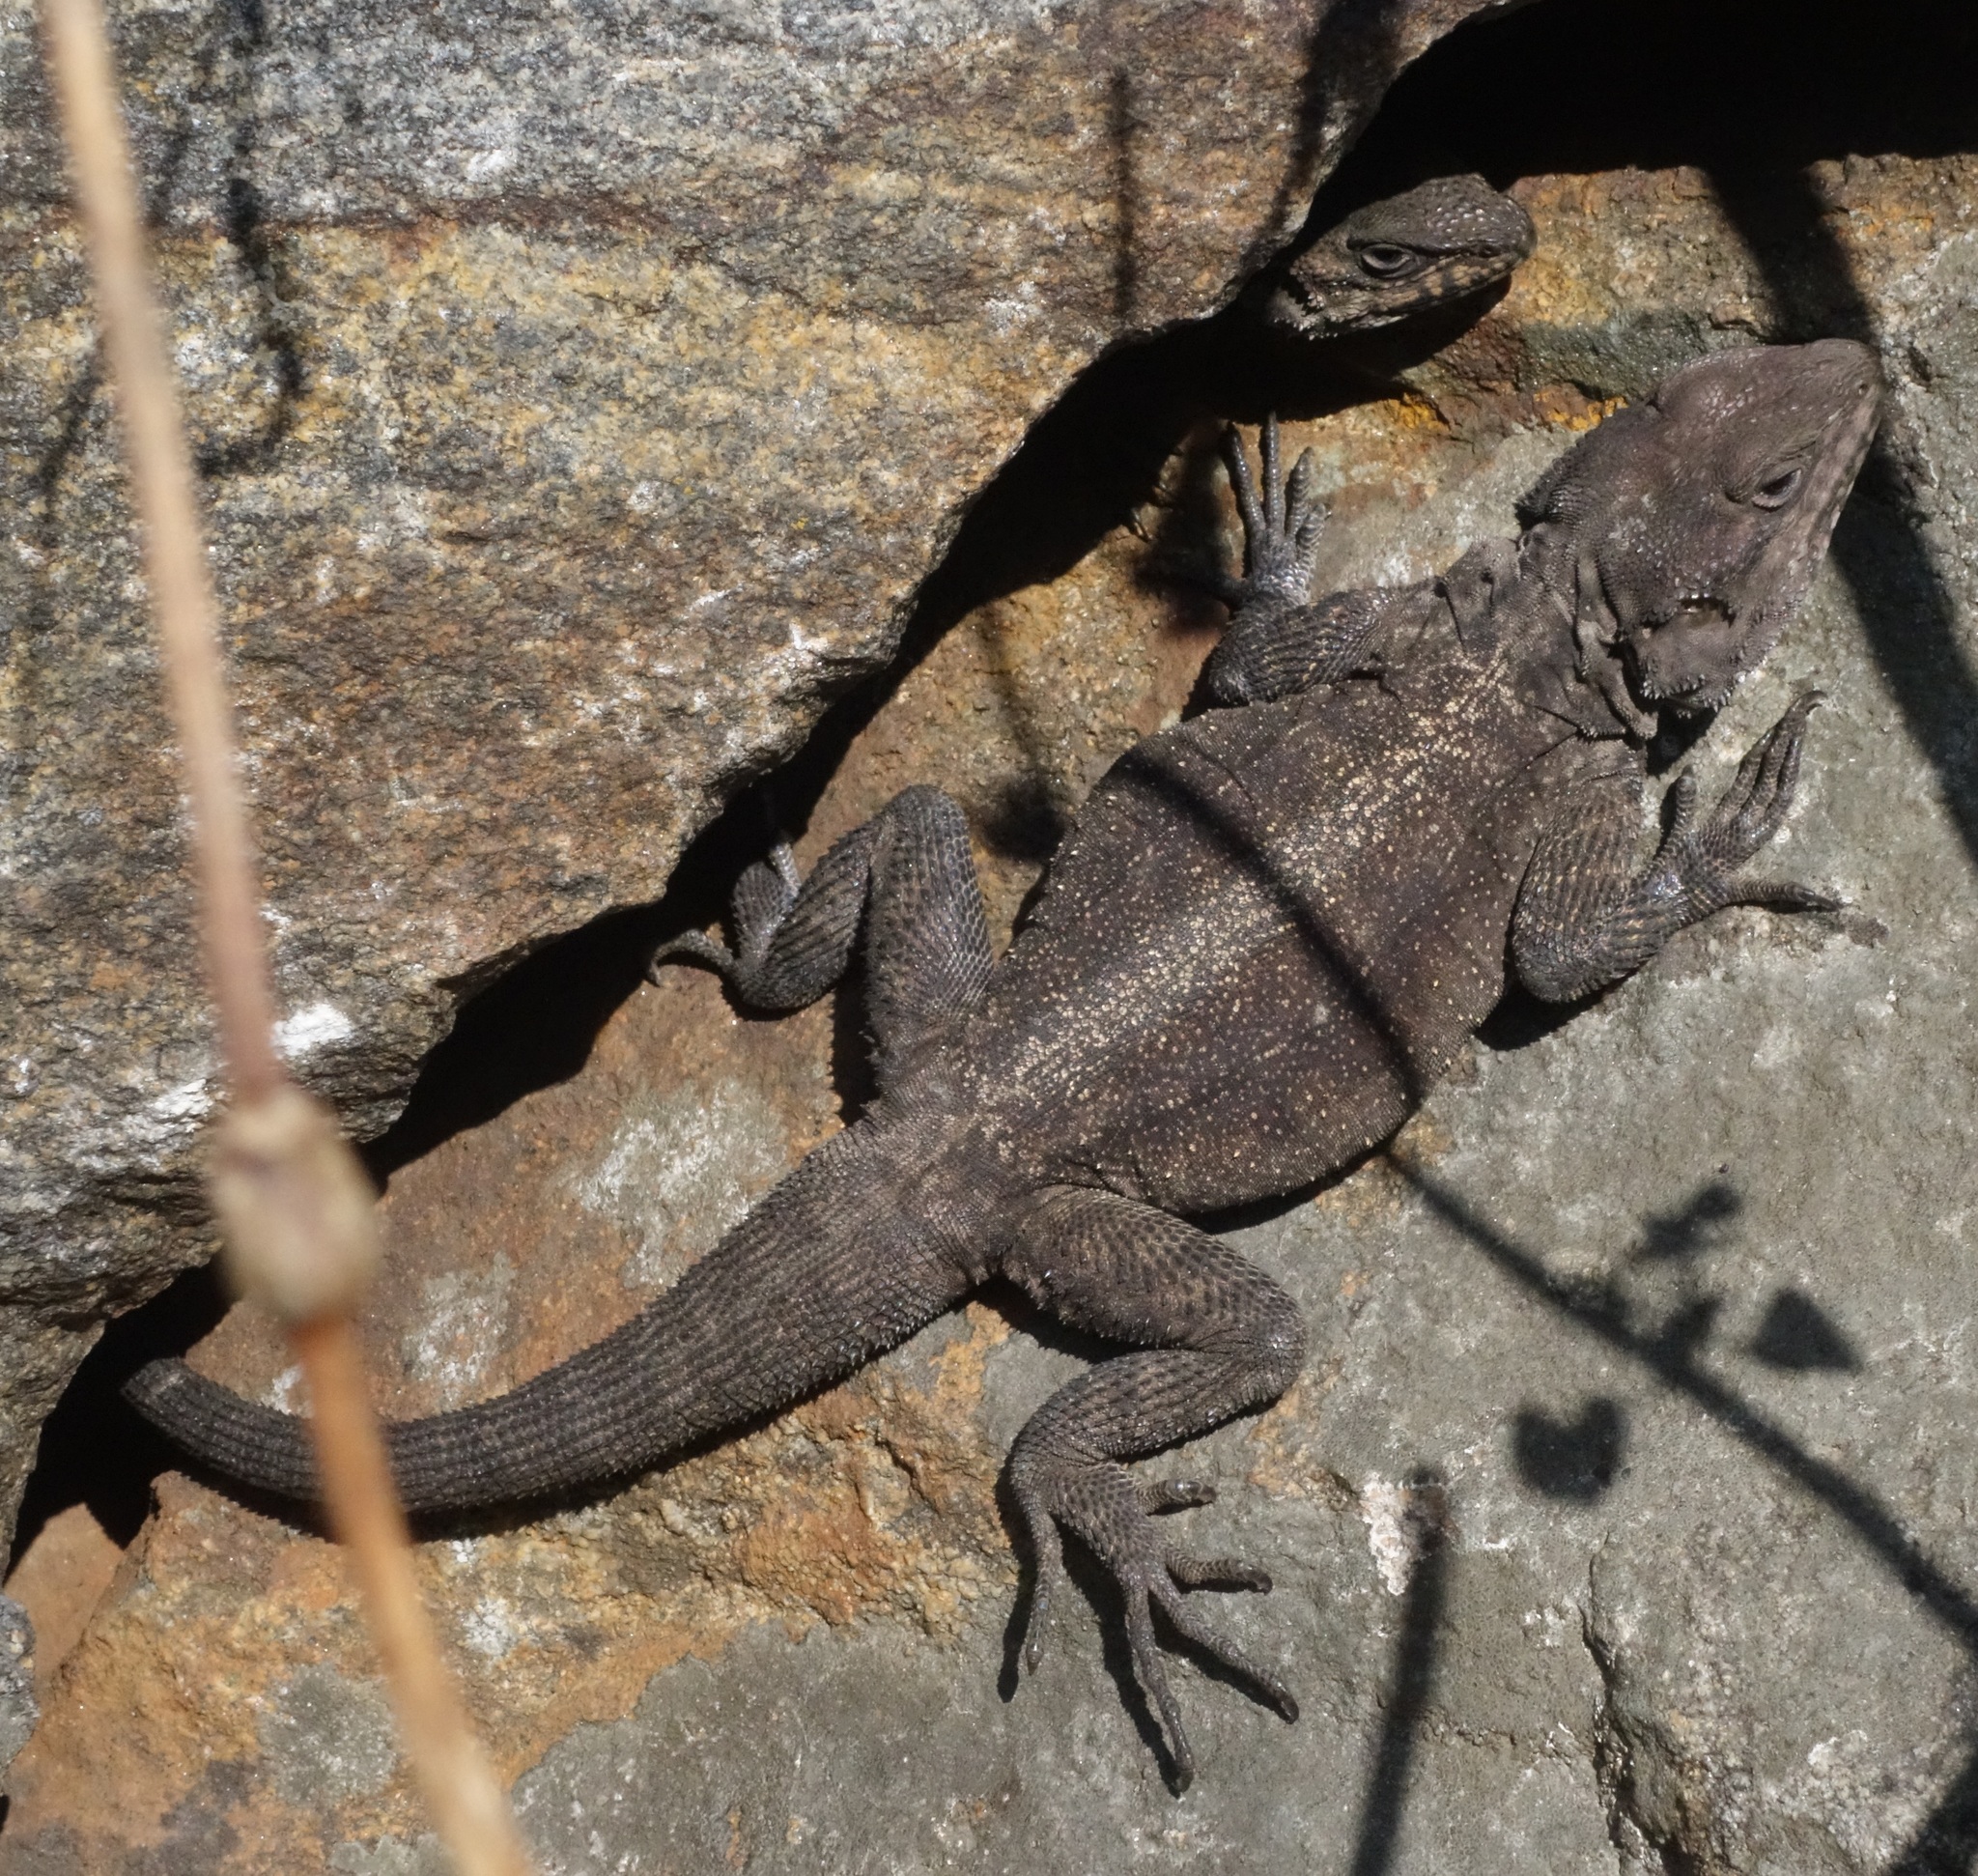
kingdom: Animalia
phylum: Chordata
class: Squamata
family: Agamidae
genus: Laudakia
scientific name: Laudakia tuberculata
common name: Kashmir rock agama
